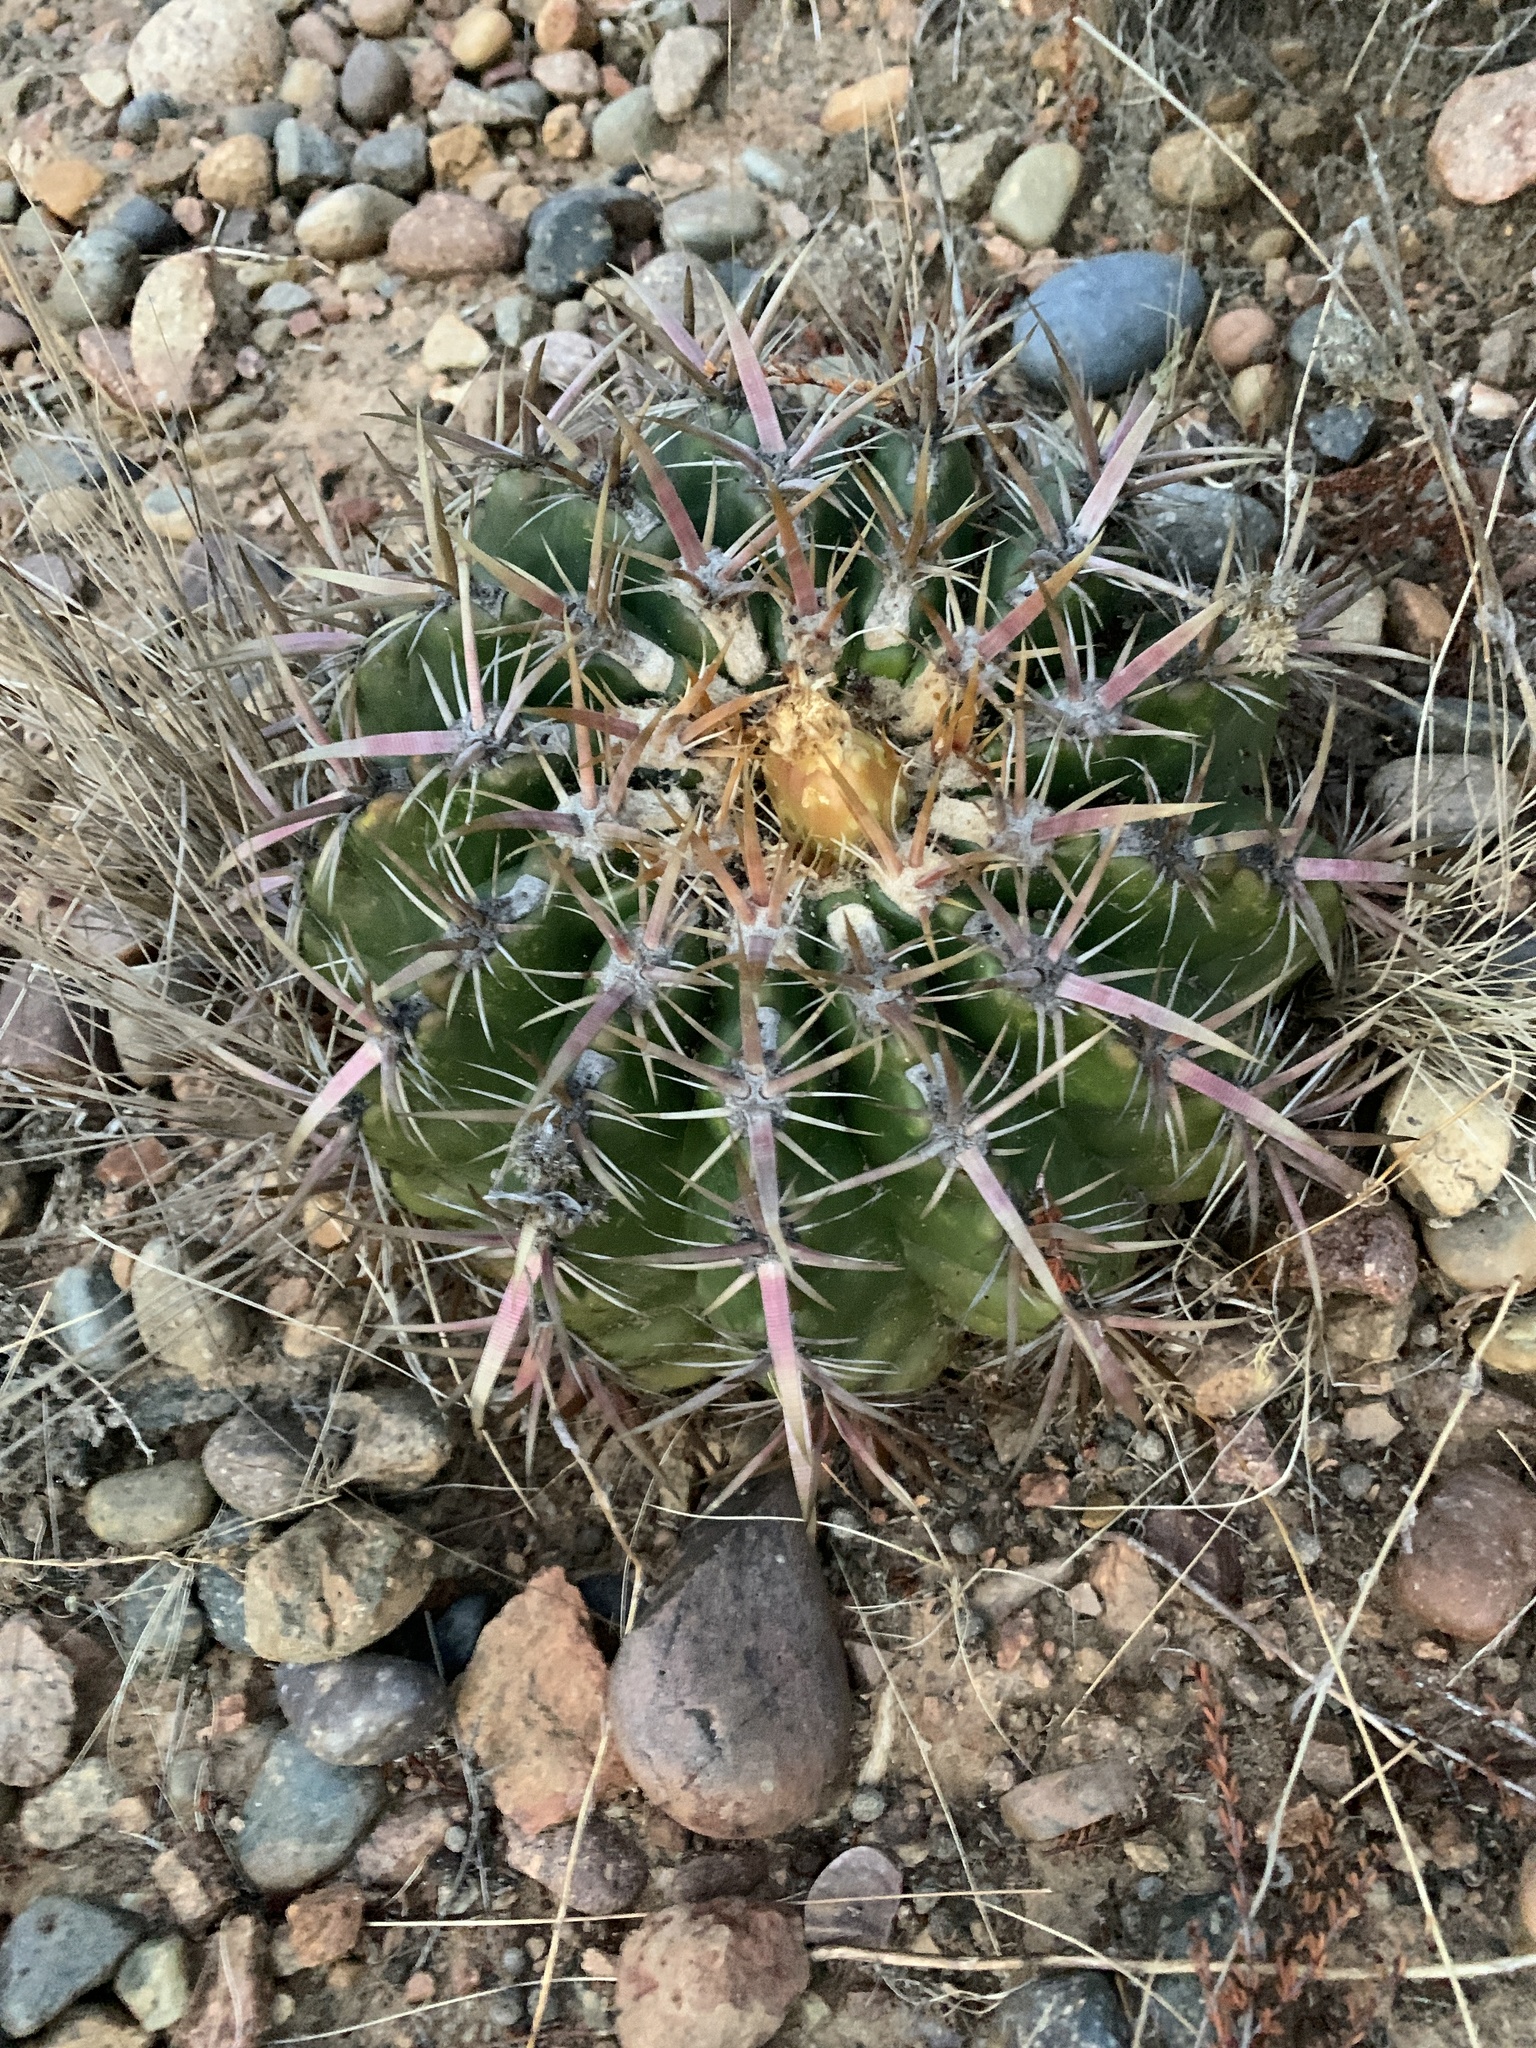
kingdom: Plantae
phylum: Tracheophyta
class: Magnoliopsida
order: Caryophyllales
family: Cactaceae
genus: Ferocactus
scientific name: Ferocactus viridescens
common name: San diego barrel cactus
